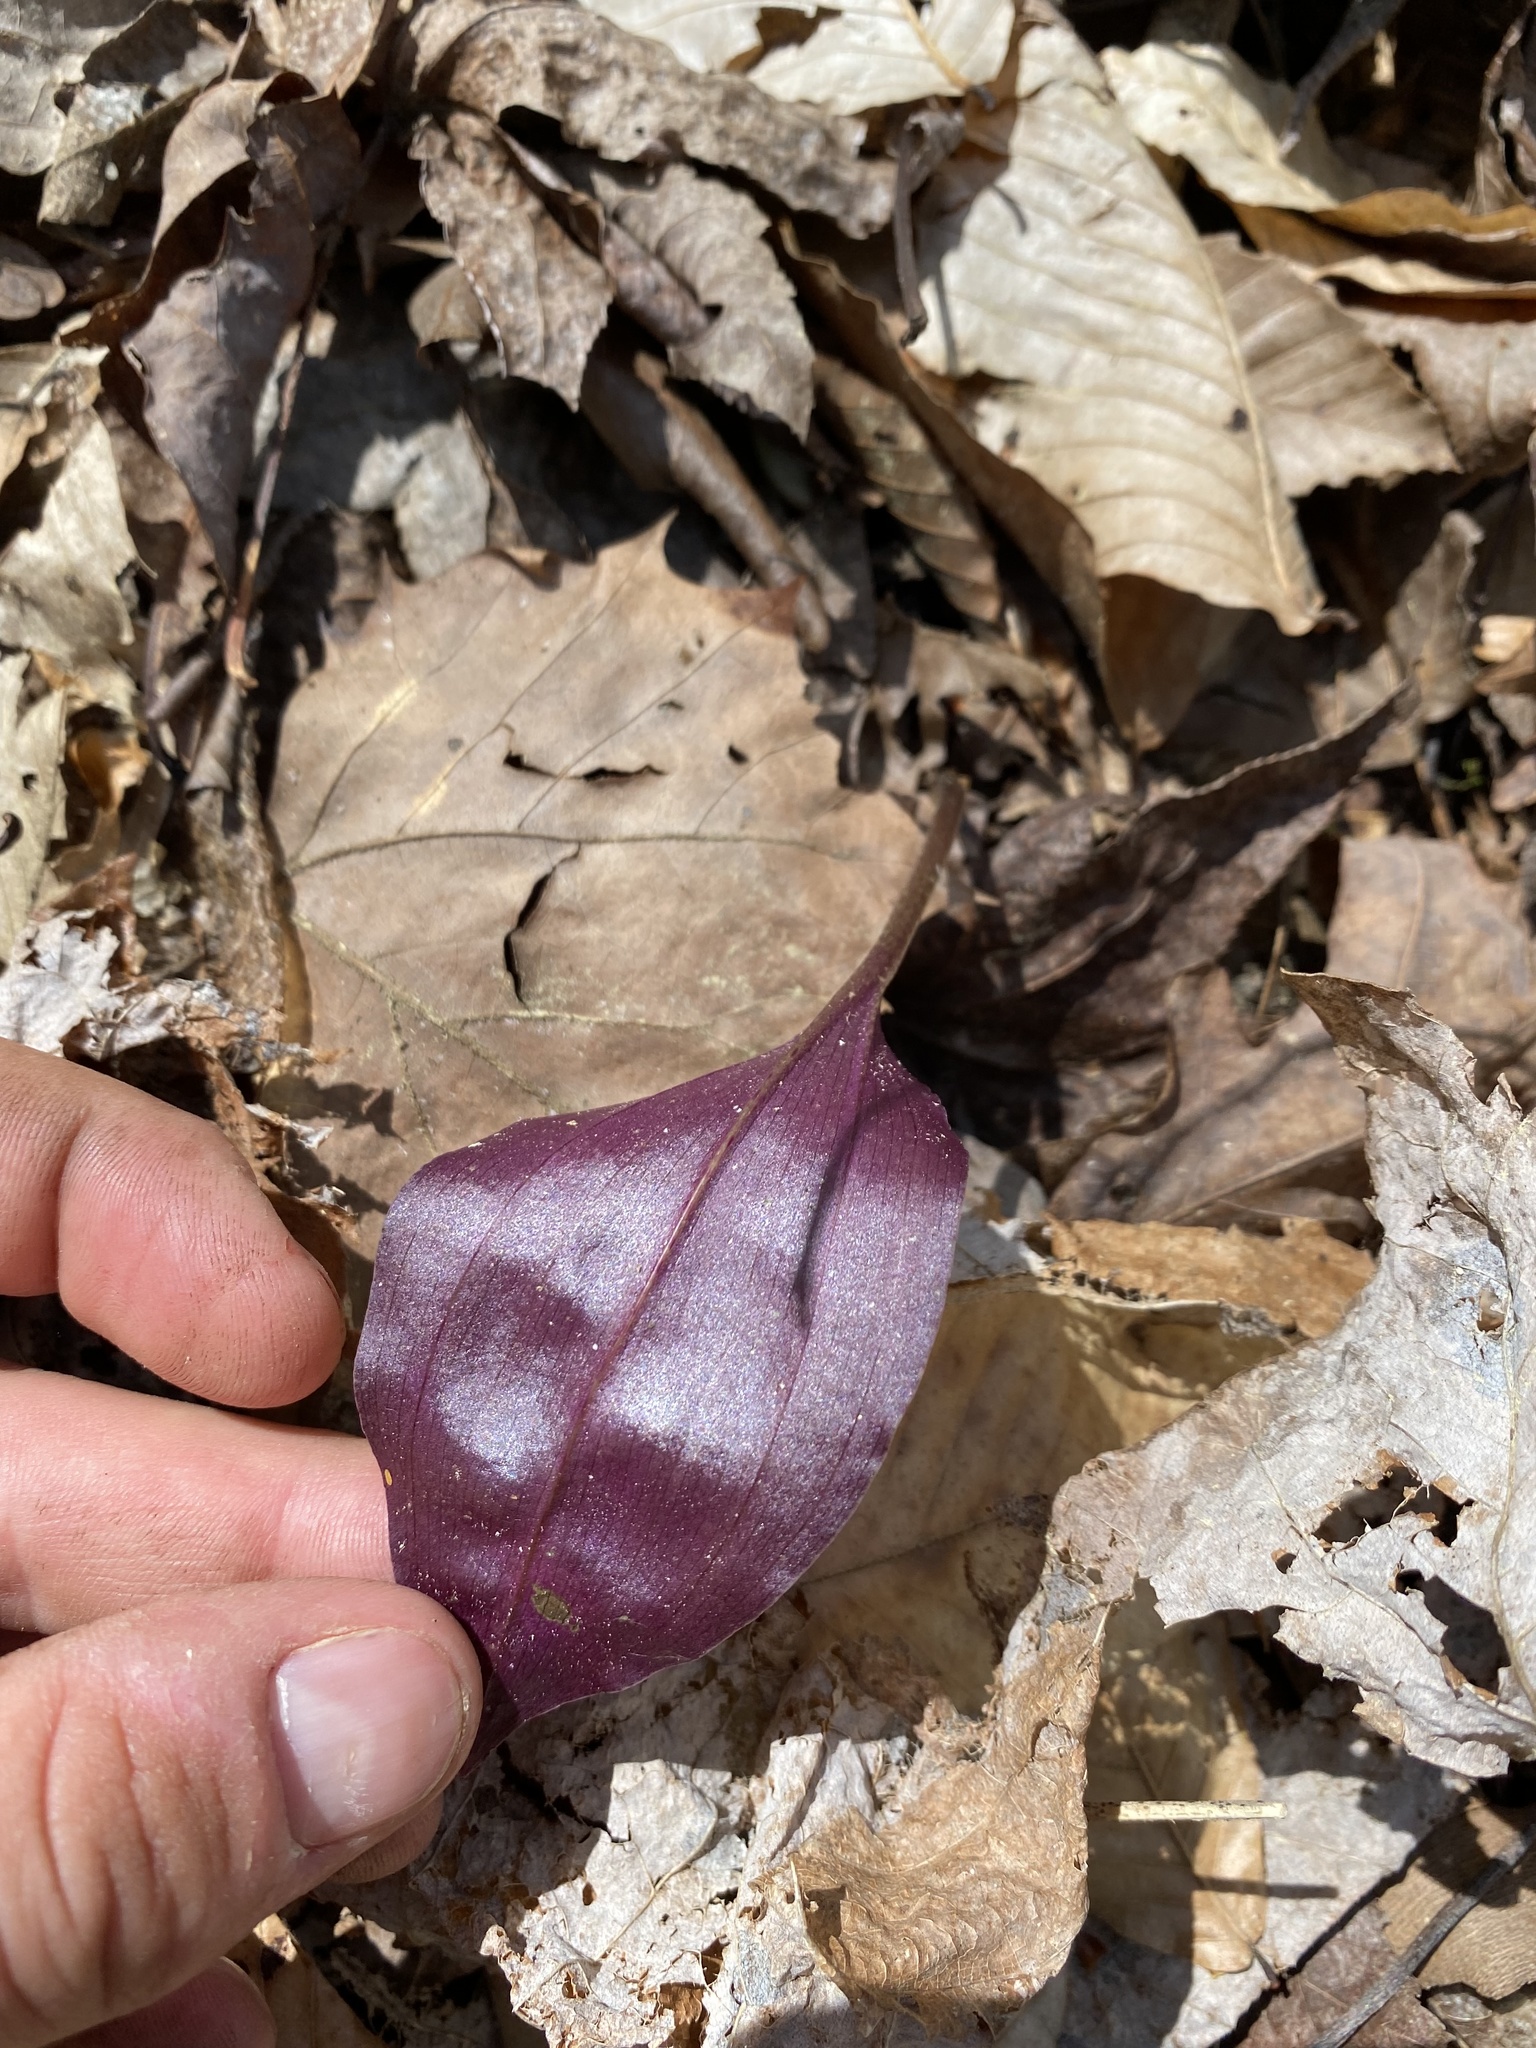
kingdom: Plantae
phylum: Tracheophyta
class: Liliopsida
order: Asparagales
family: Orchidaceae
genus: Tipularia
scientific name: Tipularia discolor
